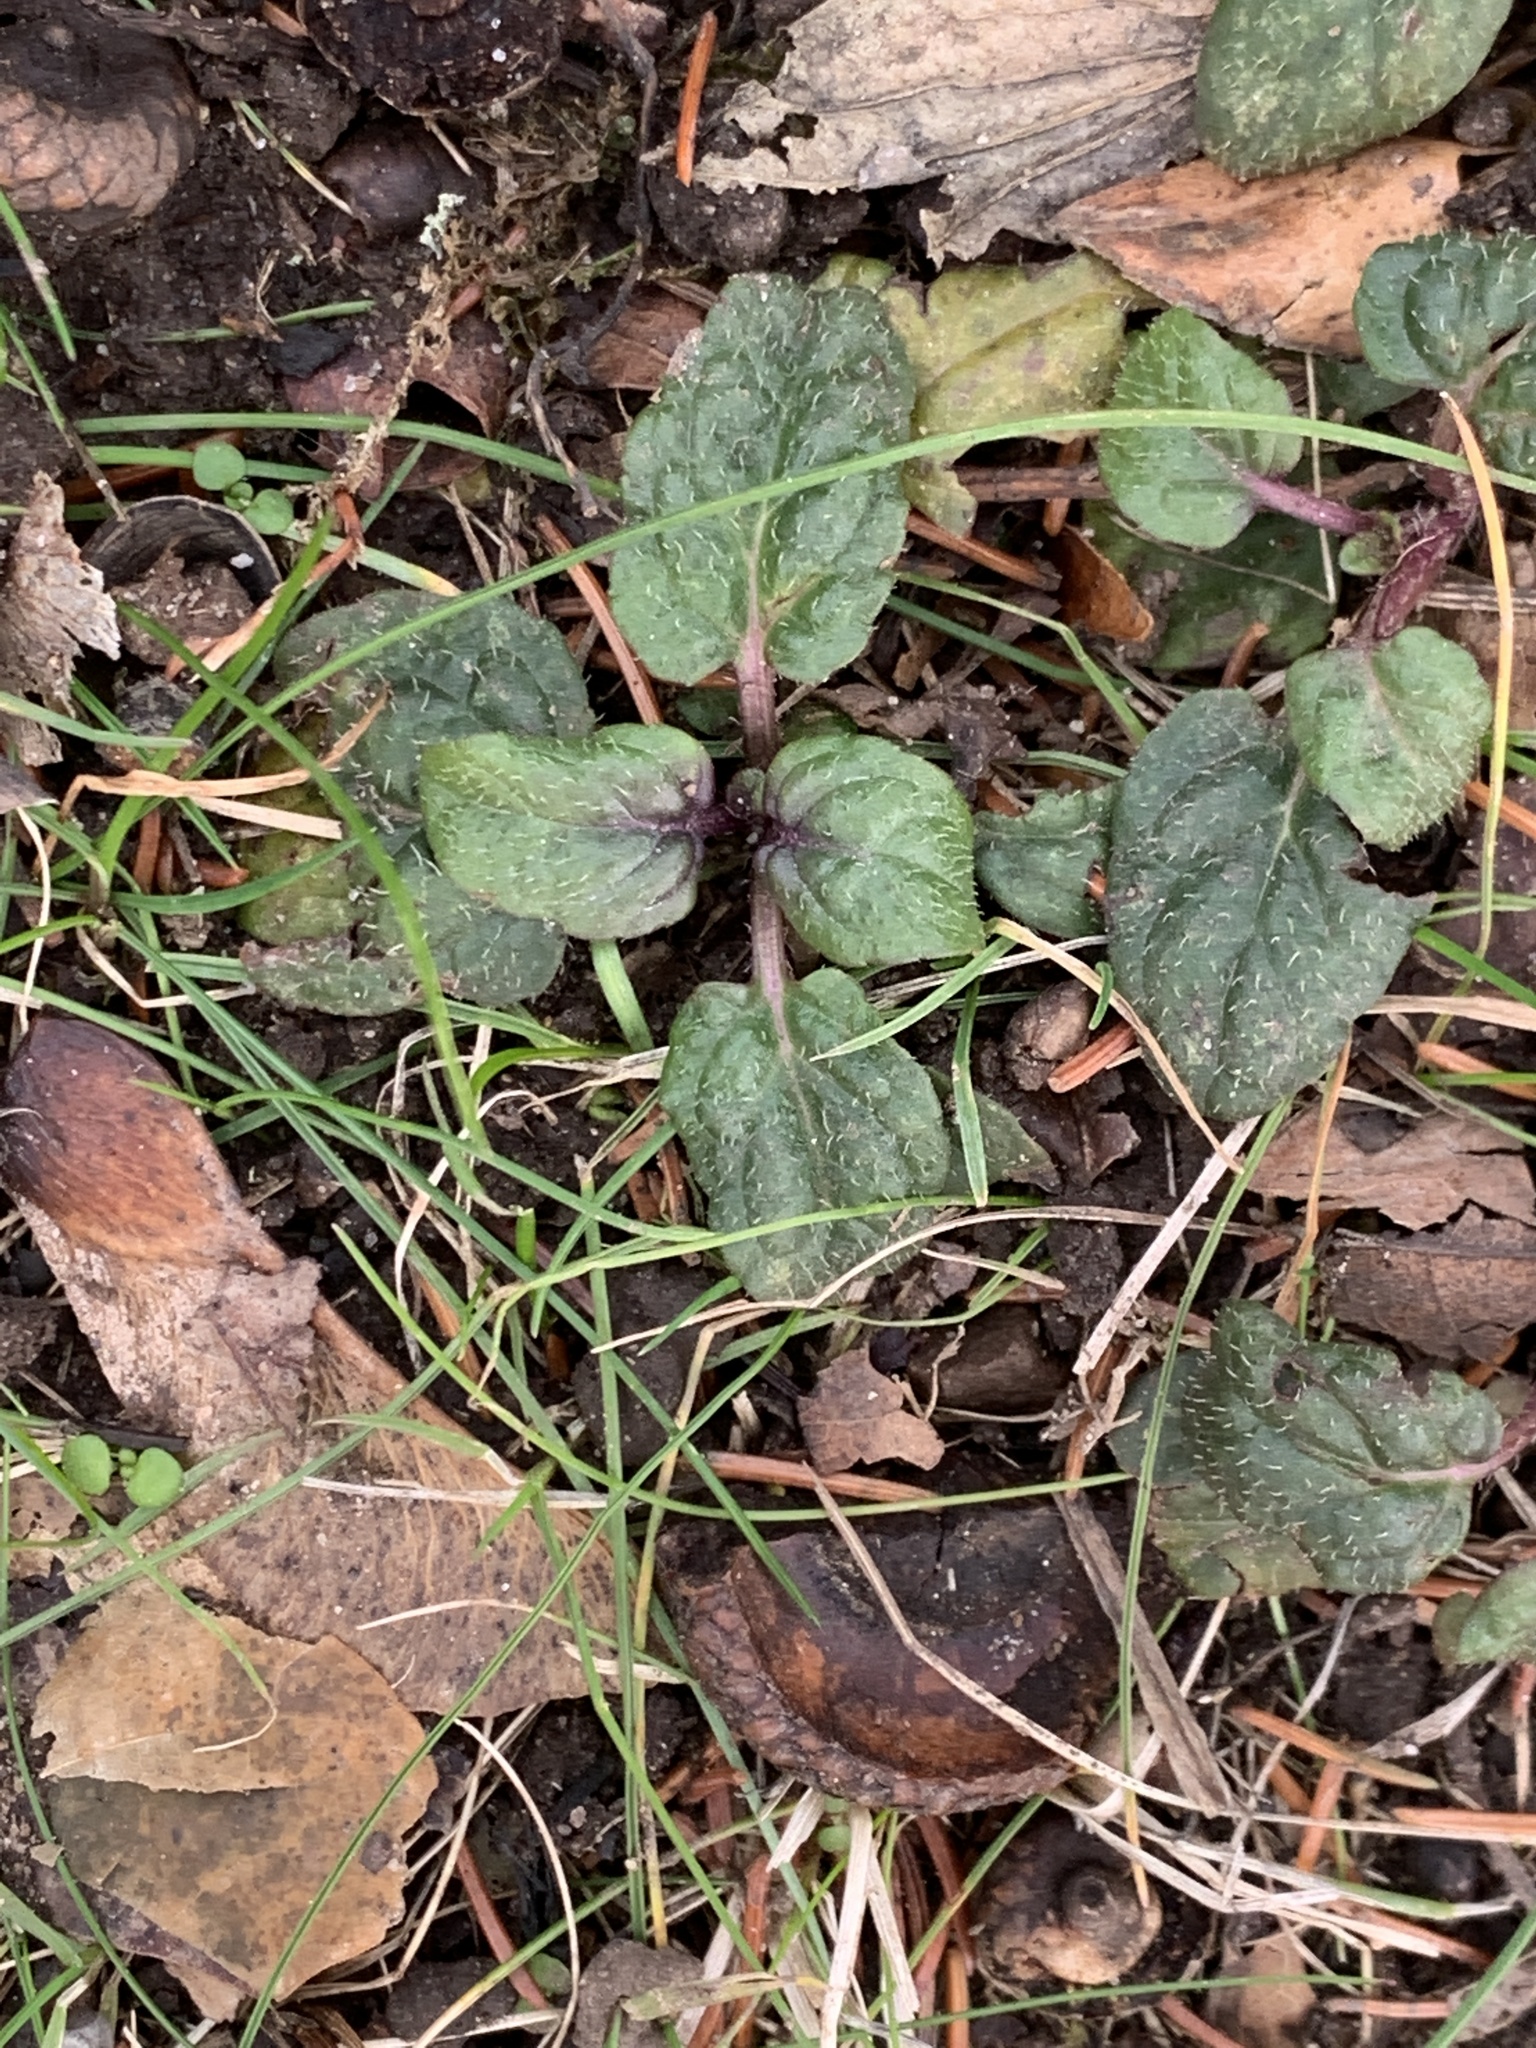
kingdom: Plantae
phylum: Tracheophyta
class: Magnoliopsida
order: Lamiales
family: Lamiaceae
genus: Prunella
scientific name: Prunella vulgaris
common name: Heal-all
